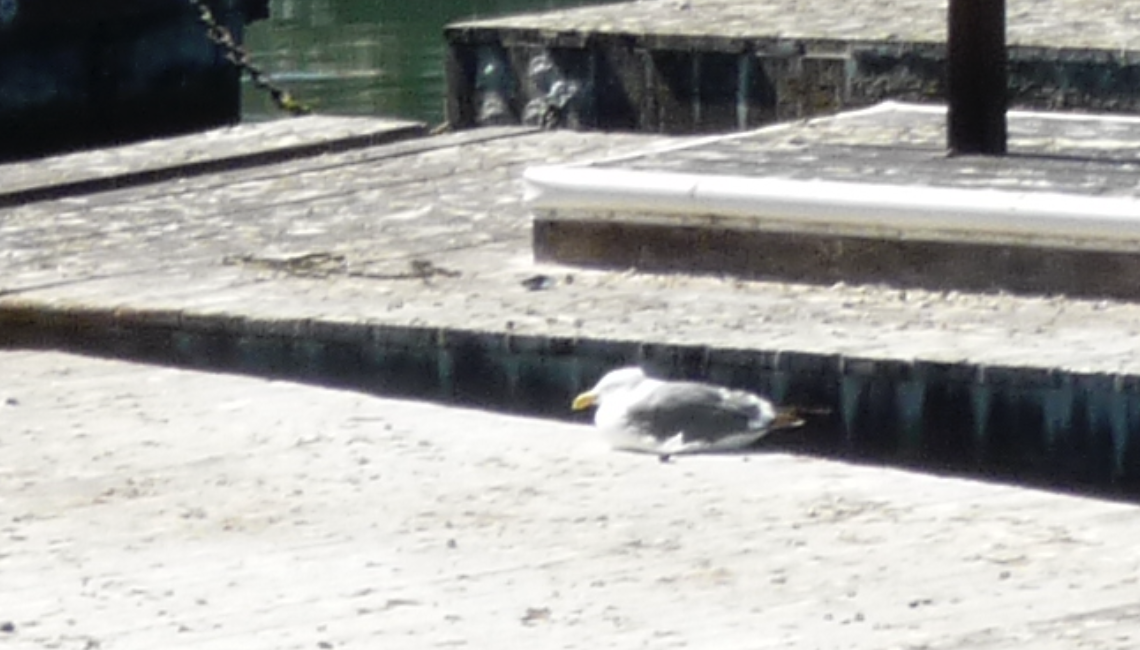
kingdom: Animalia
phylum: Chordata
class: Aves
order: Charadriiformes
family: Laridae
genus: Larus
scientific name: Larus occidentalis
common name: Western gull
